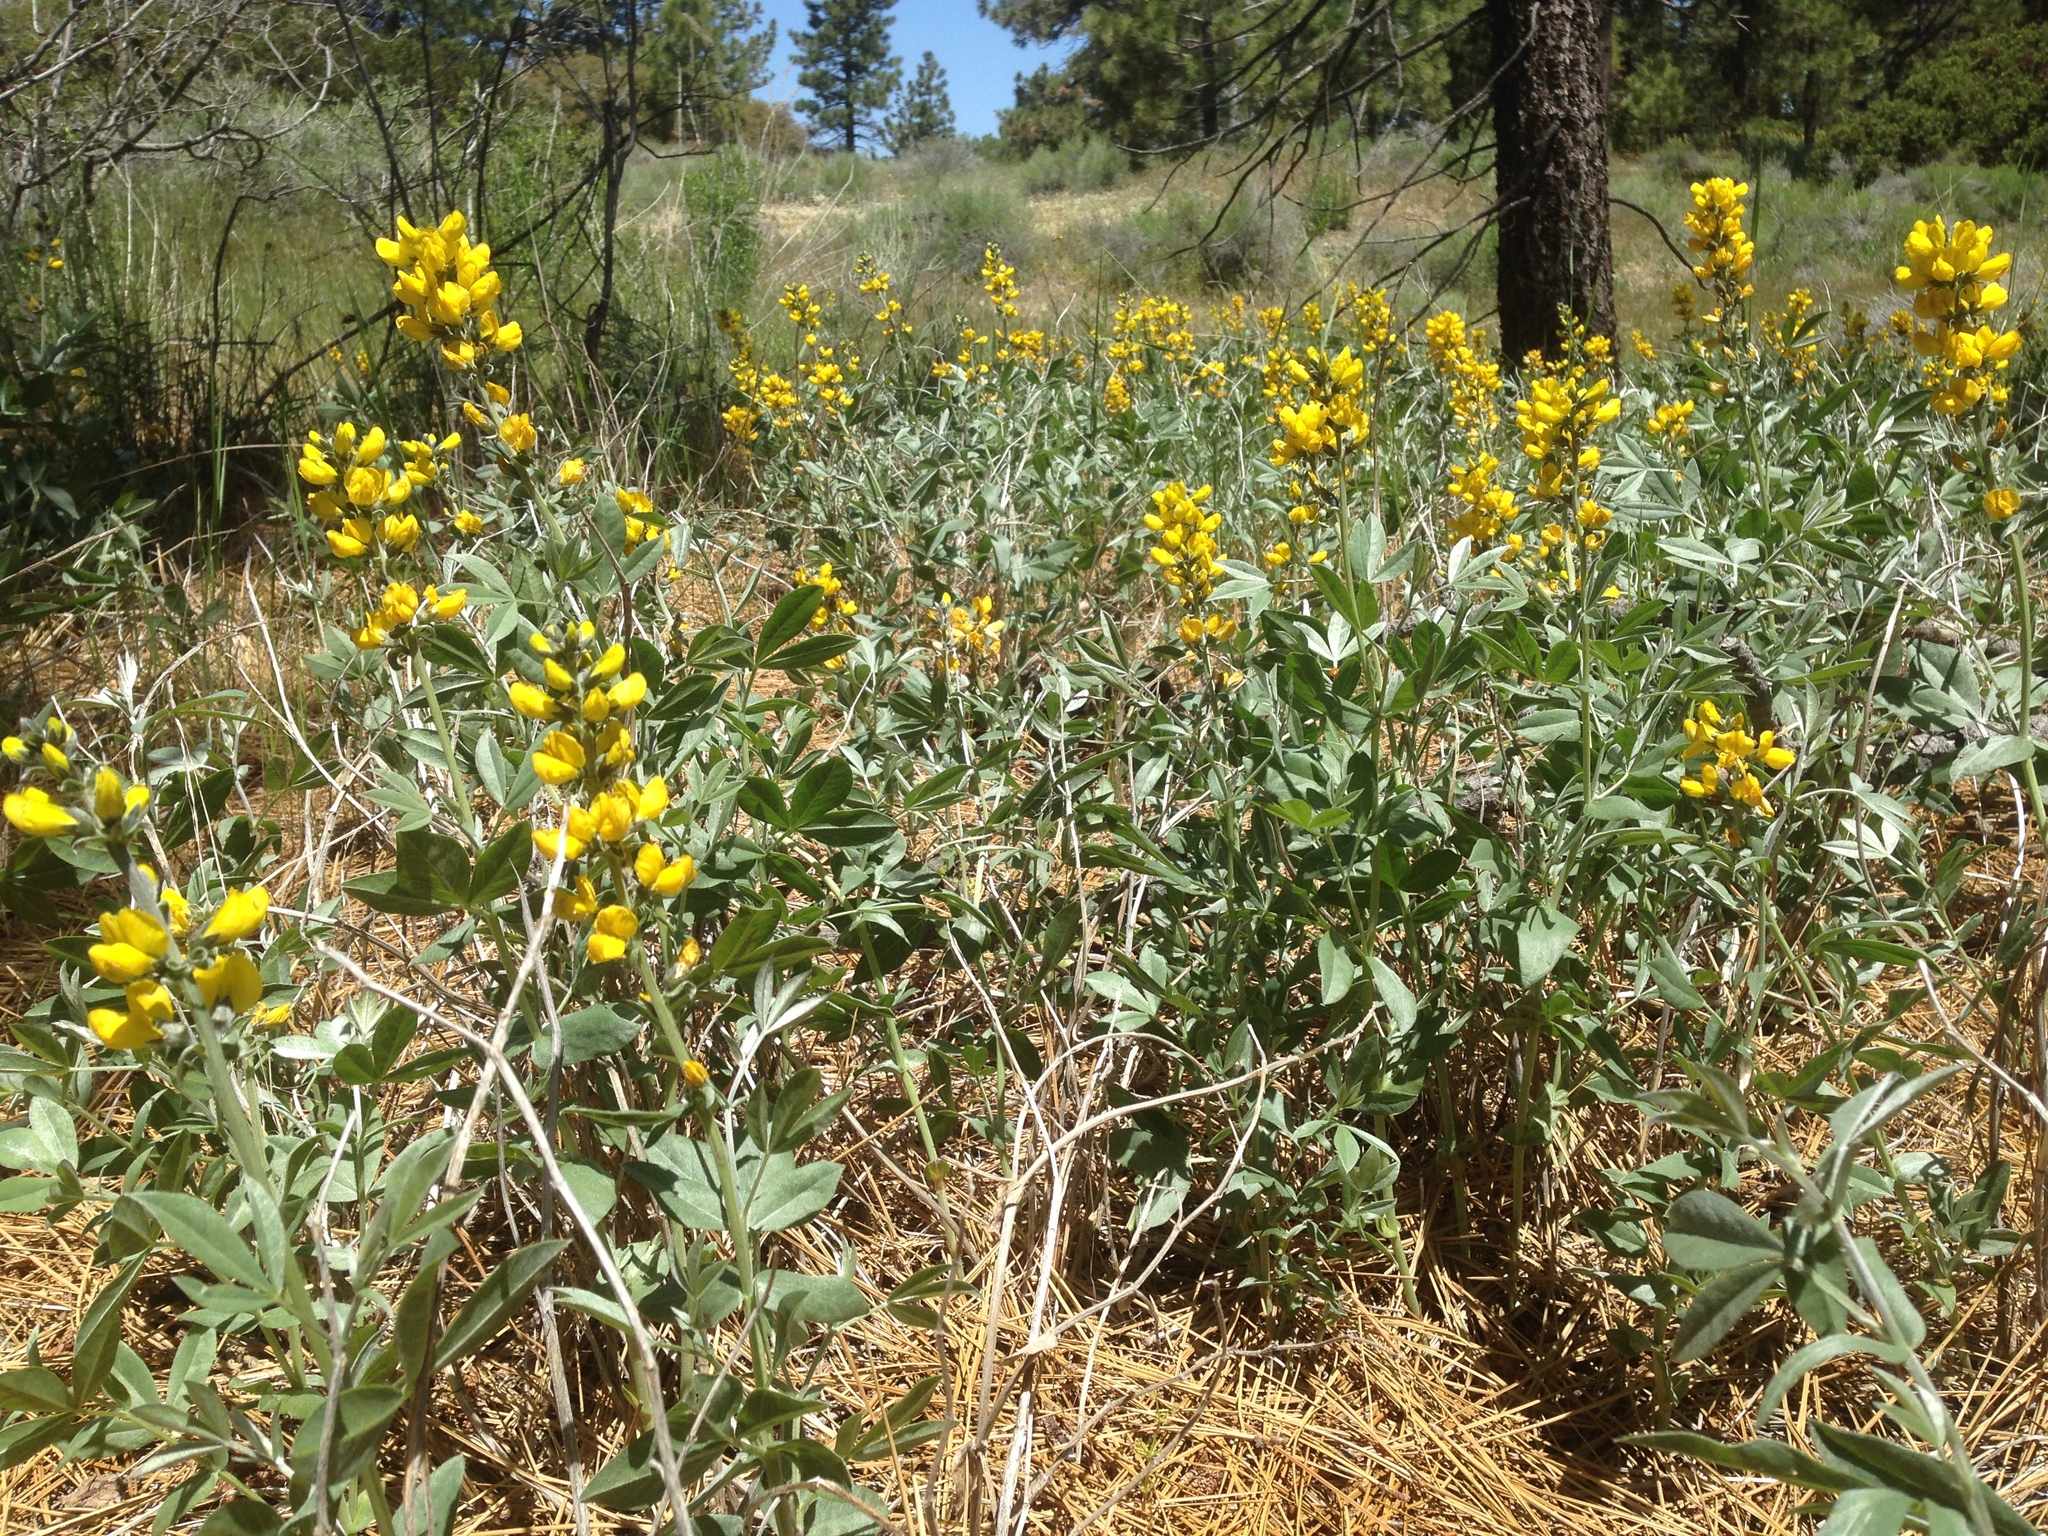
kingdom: Plantae
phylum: Tracheophyta
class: Magnoliopsida
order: Fabales
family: Fabaceae
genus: Thermopsis
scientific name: Thermopsis californica
